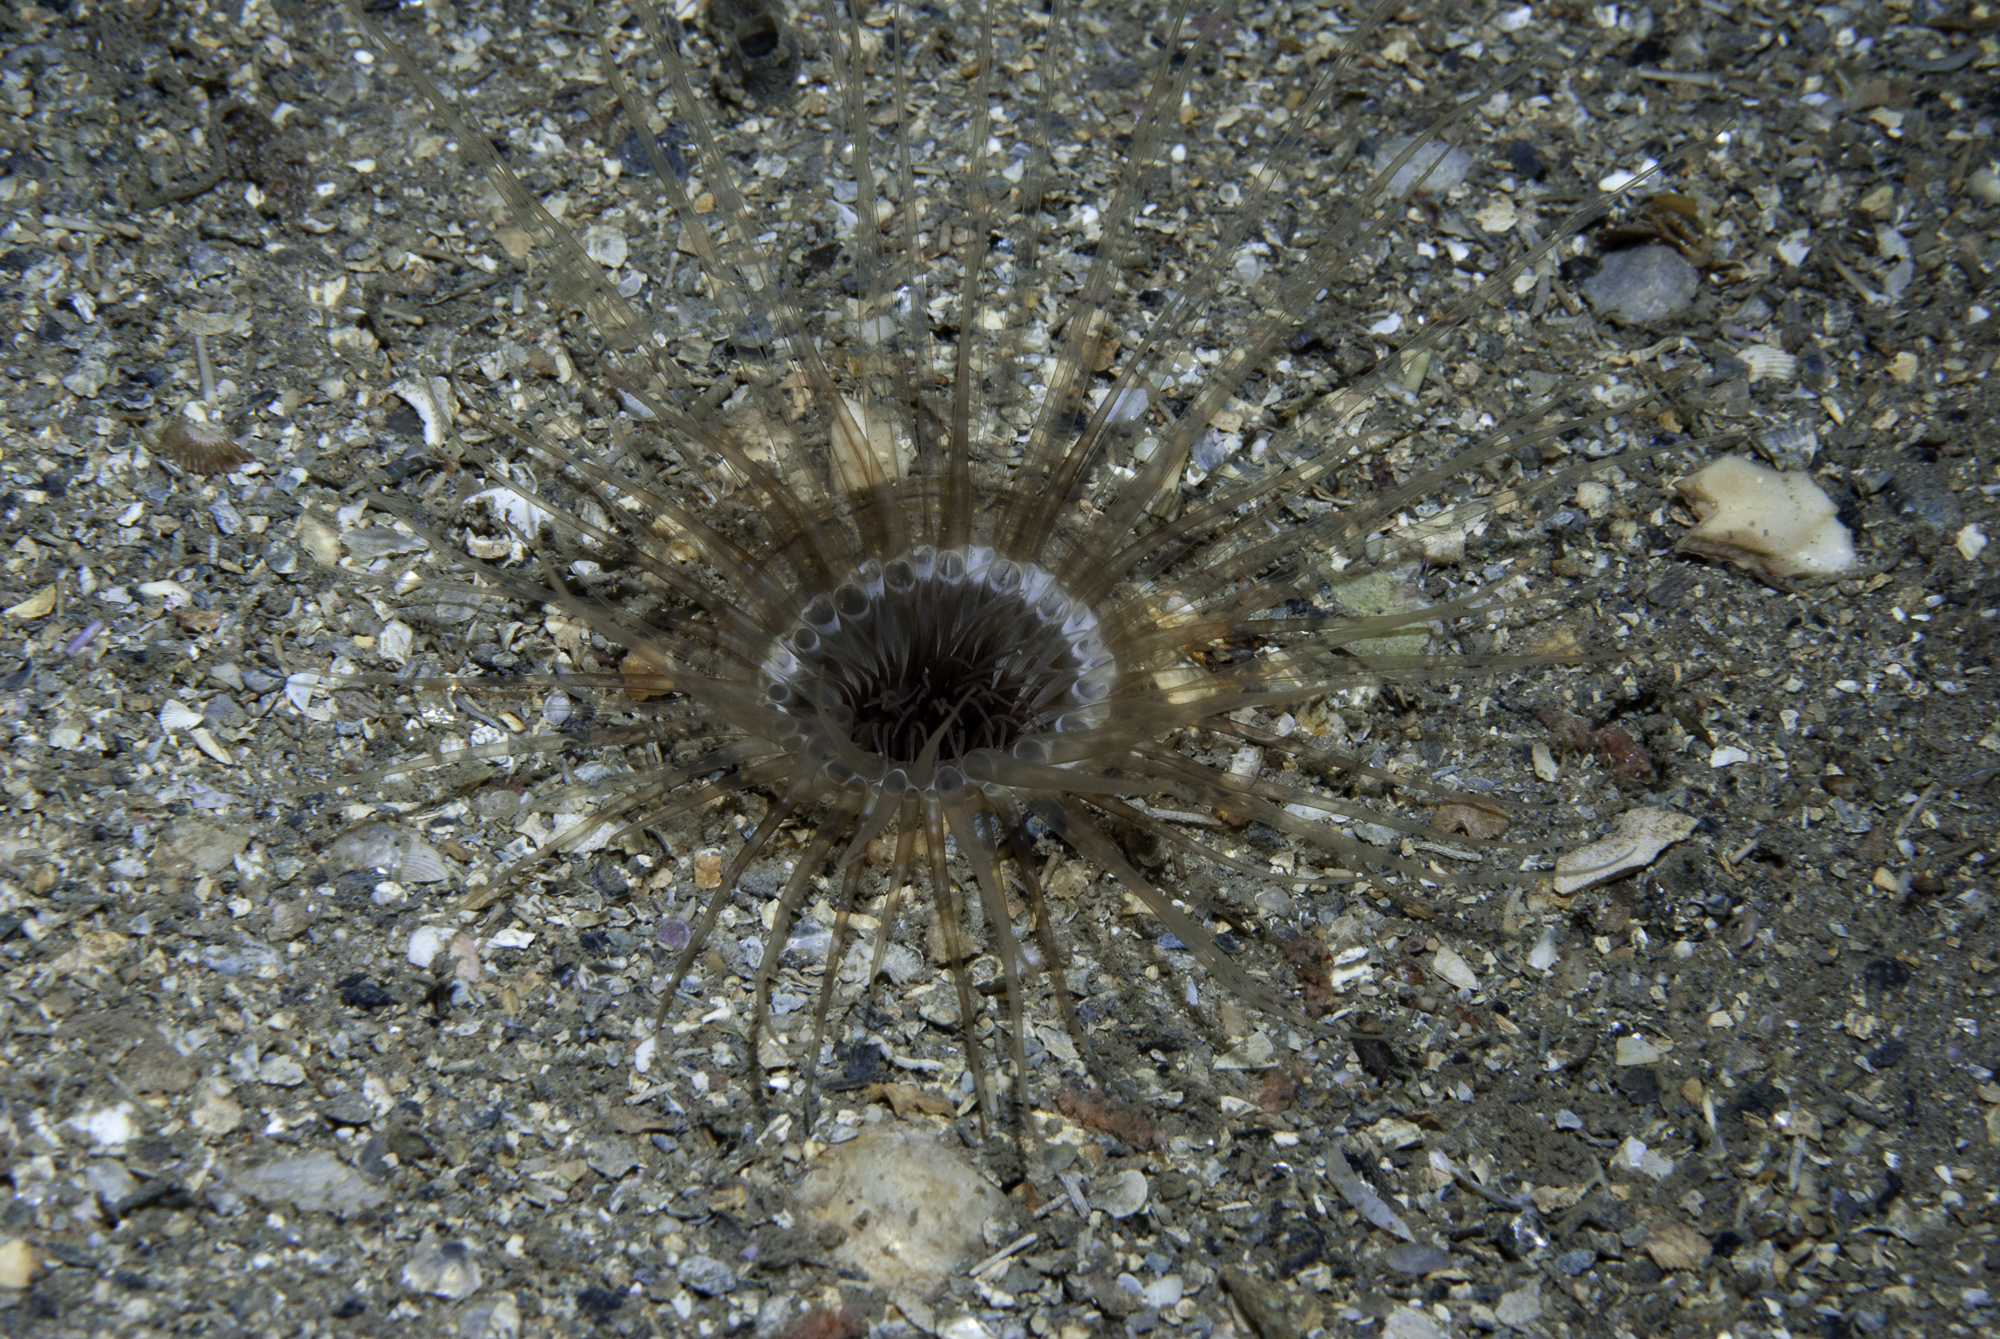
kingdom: Animalia
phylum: Cnidaria
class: Anthozoa
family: Cerianthidae
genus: Synarachnactis
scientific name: Synarachnactis
